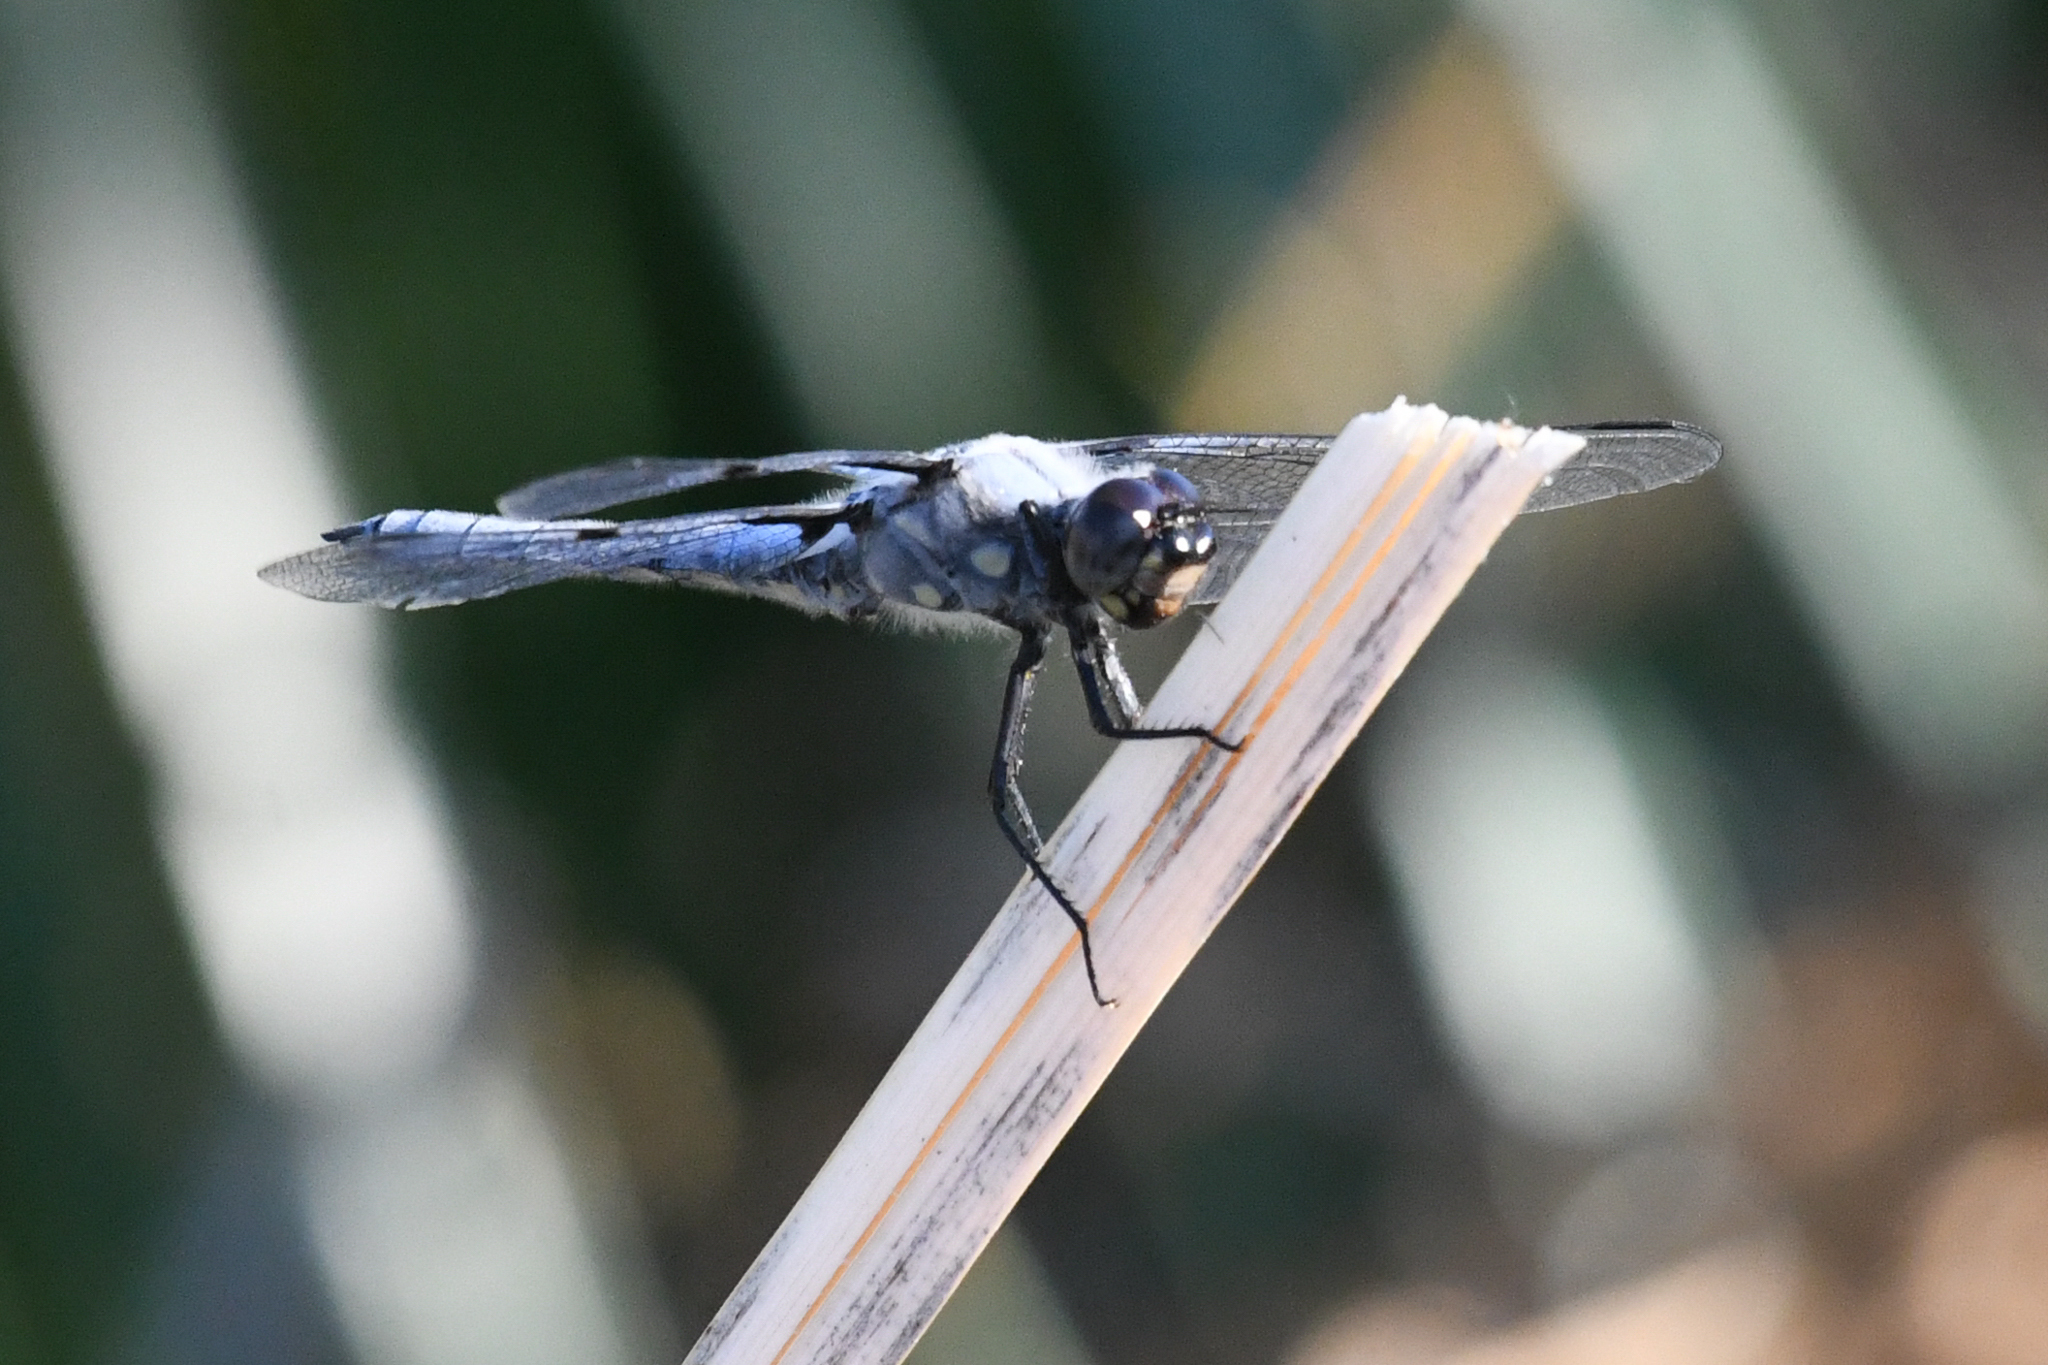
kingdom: Animalia
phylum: Arthropoda
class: Insecta
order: Odonata
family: Libellulidae
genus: Libellula
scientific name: Libellula nodisticta
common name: Hoary skimmer
